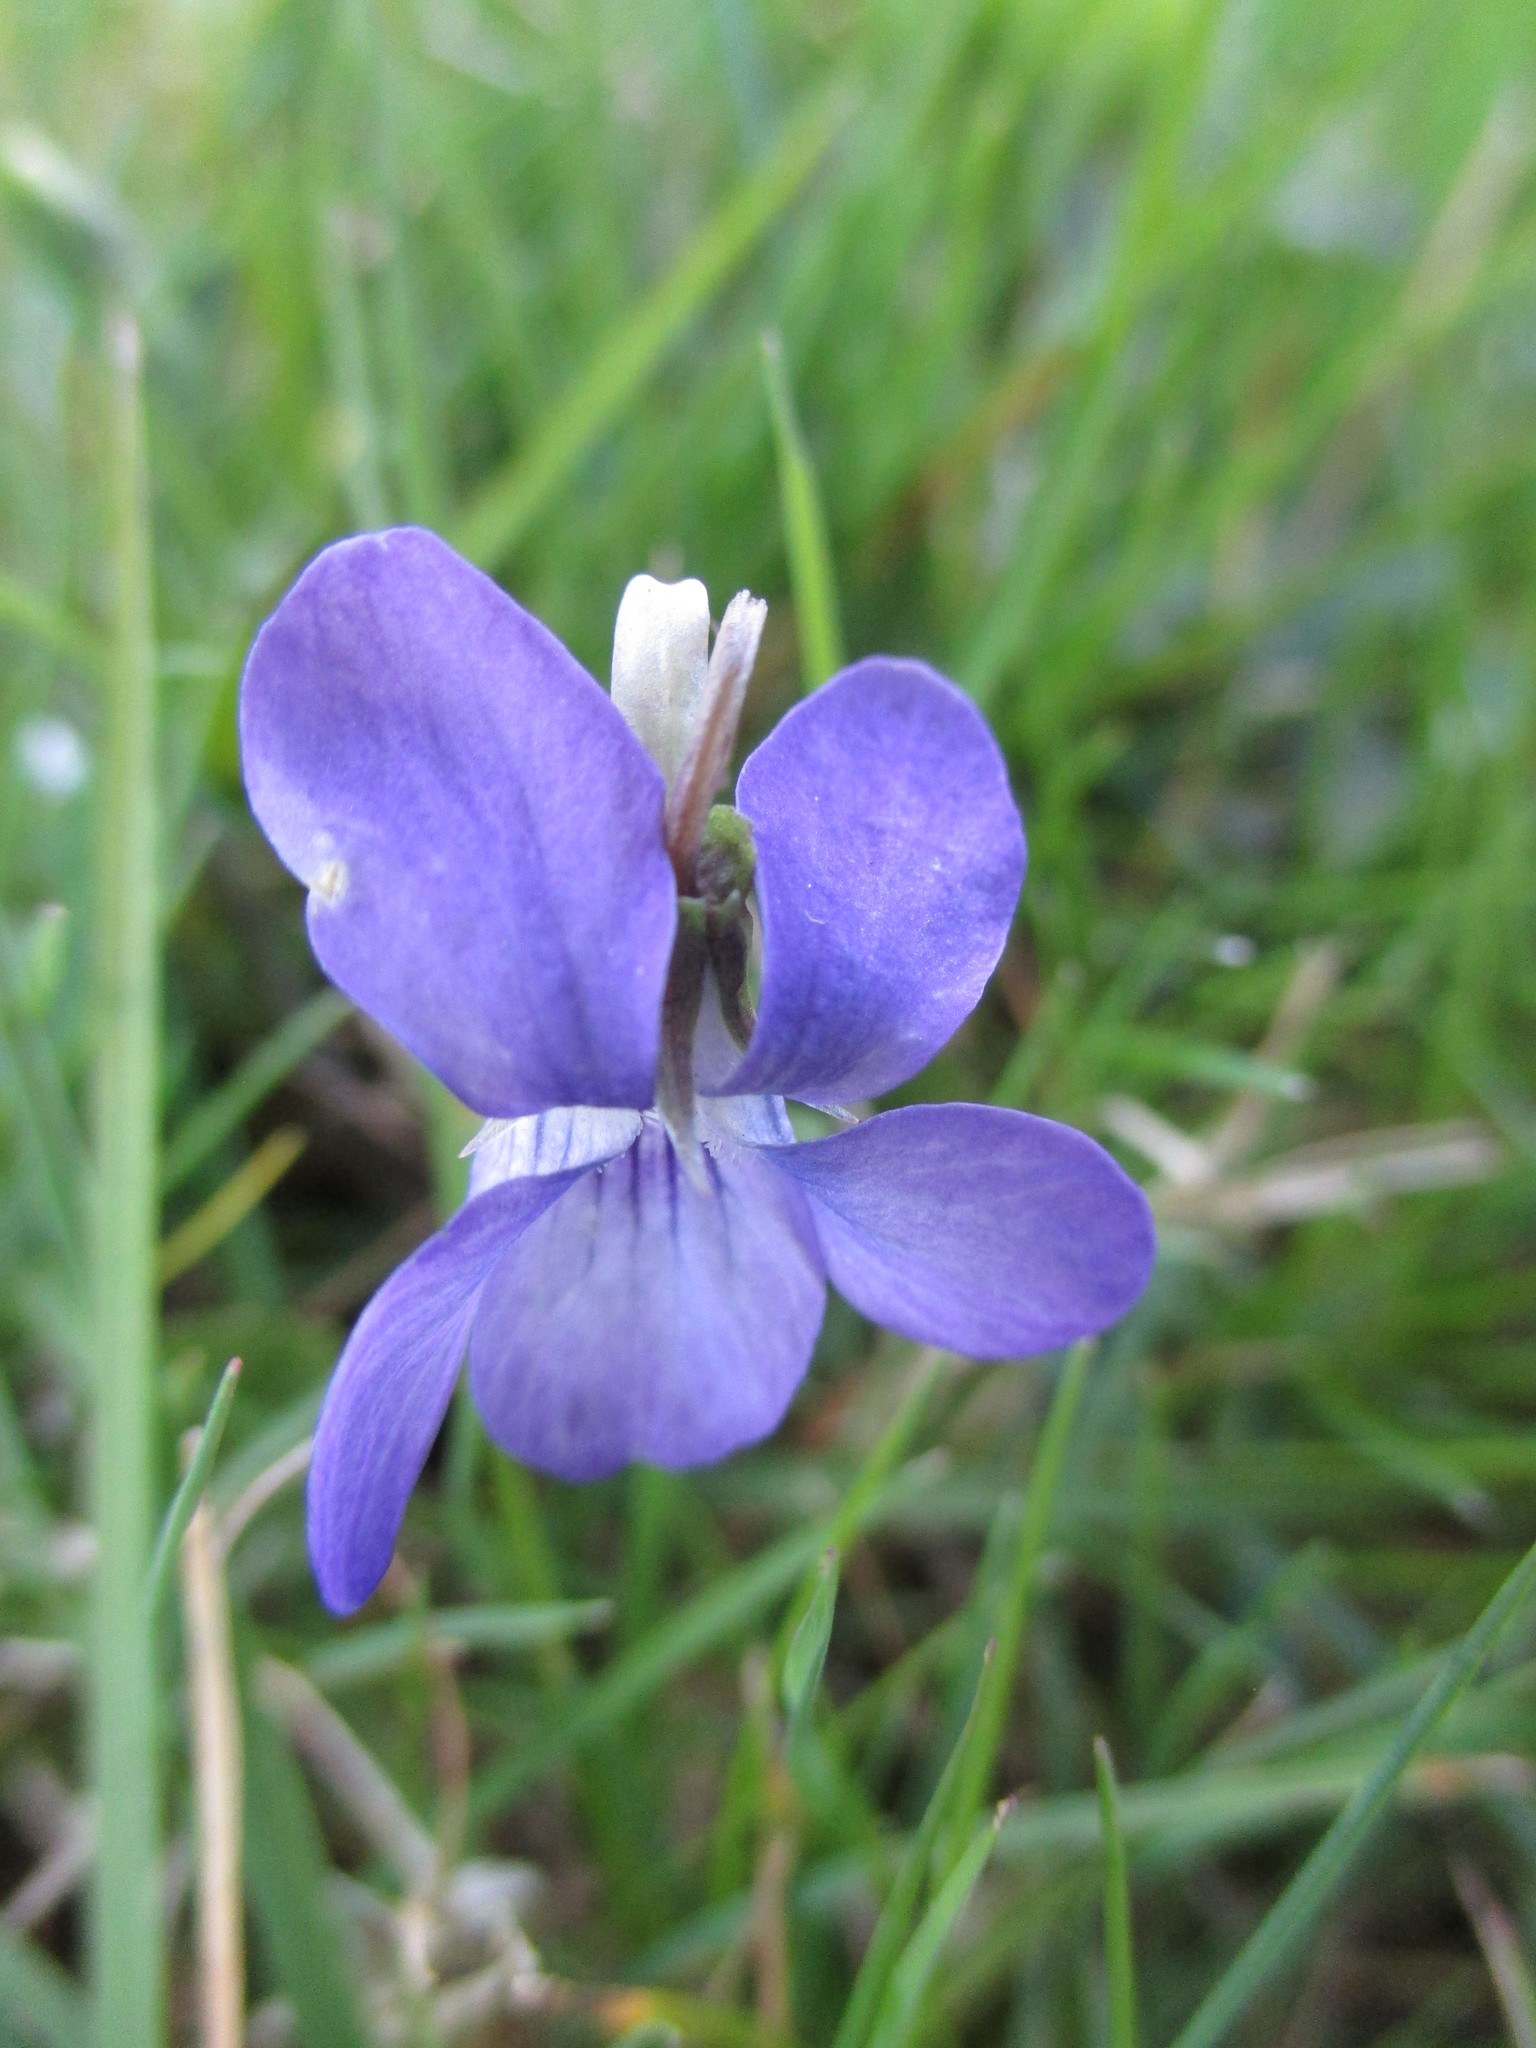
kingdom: Plantae
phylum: Tracheophyta
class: Magnoliopsida
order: Malpighiales
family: Violaceae
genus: Viola
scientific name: Viola riviniana
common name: Common dog-violet
